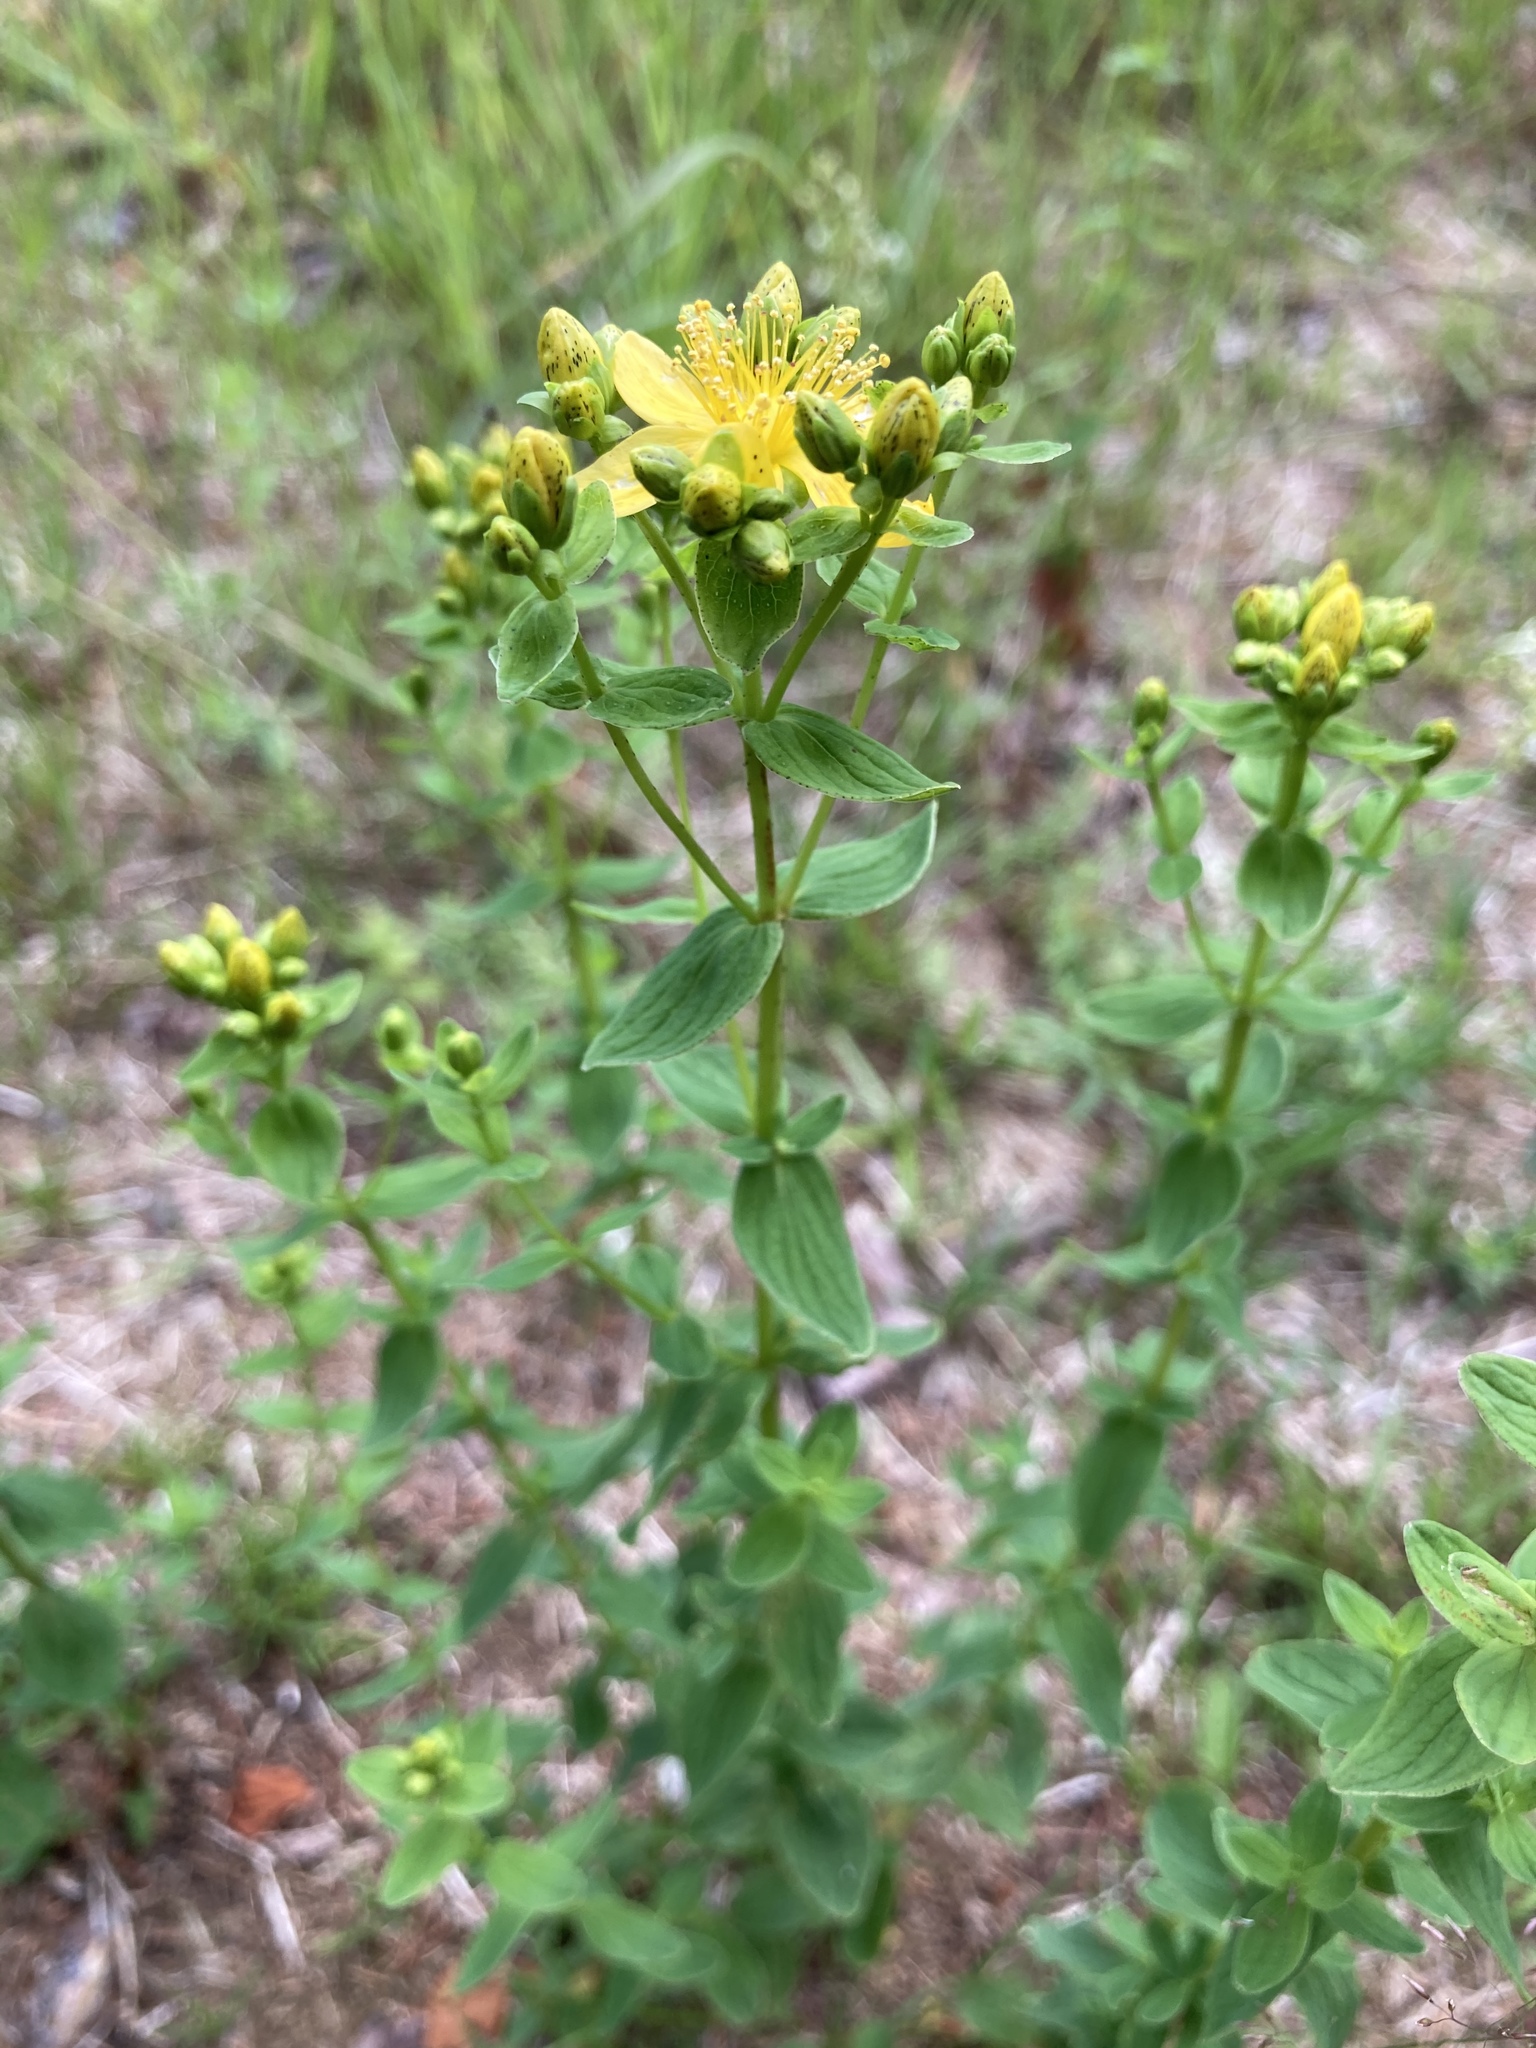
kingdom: Plantae
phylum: Tracheophyta
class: Magnoliopsida
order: Malpighiales
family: Hypericaceae
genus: Hypericum
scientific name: Hypericum maculatum
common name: Imperforate st. john's-wort
